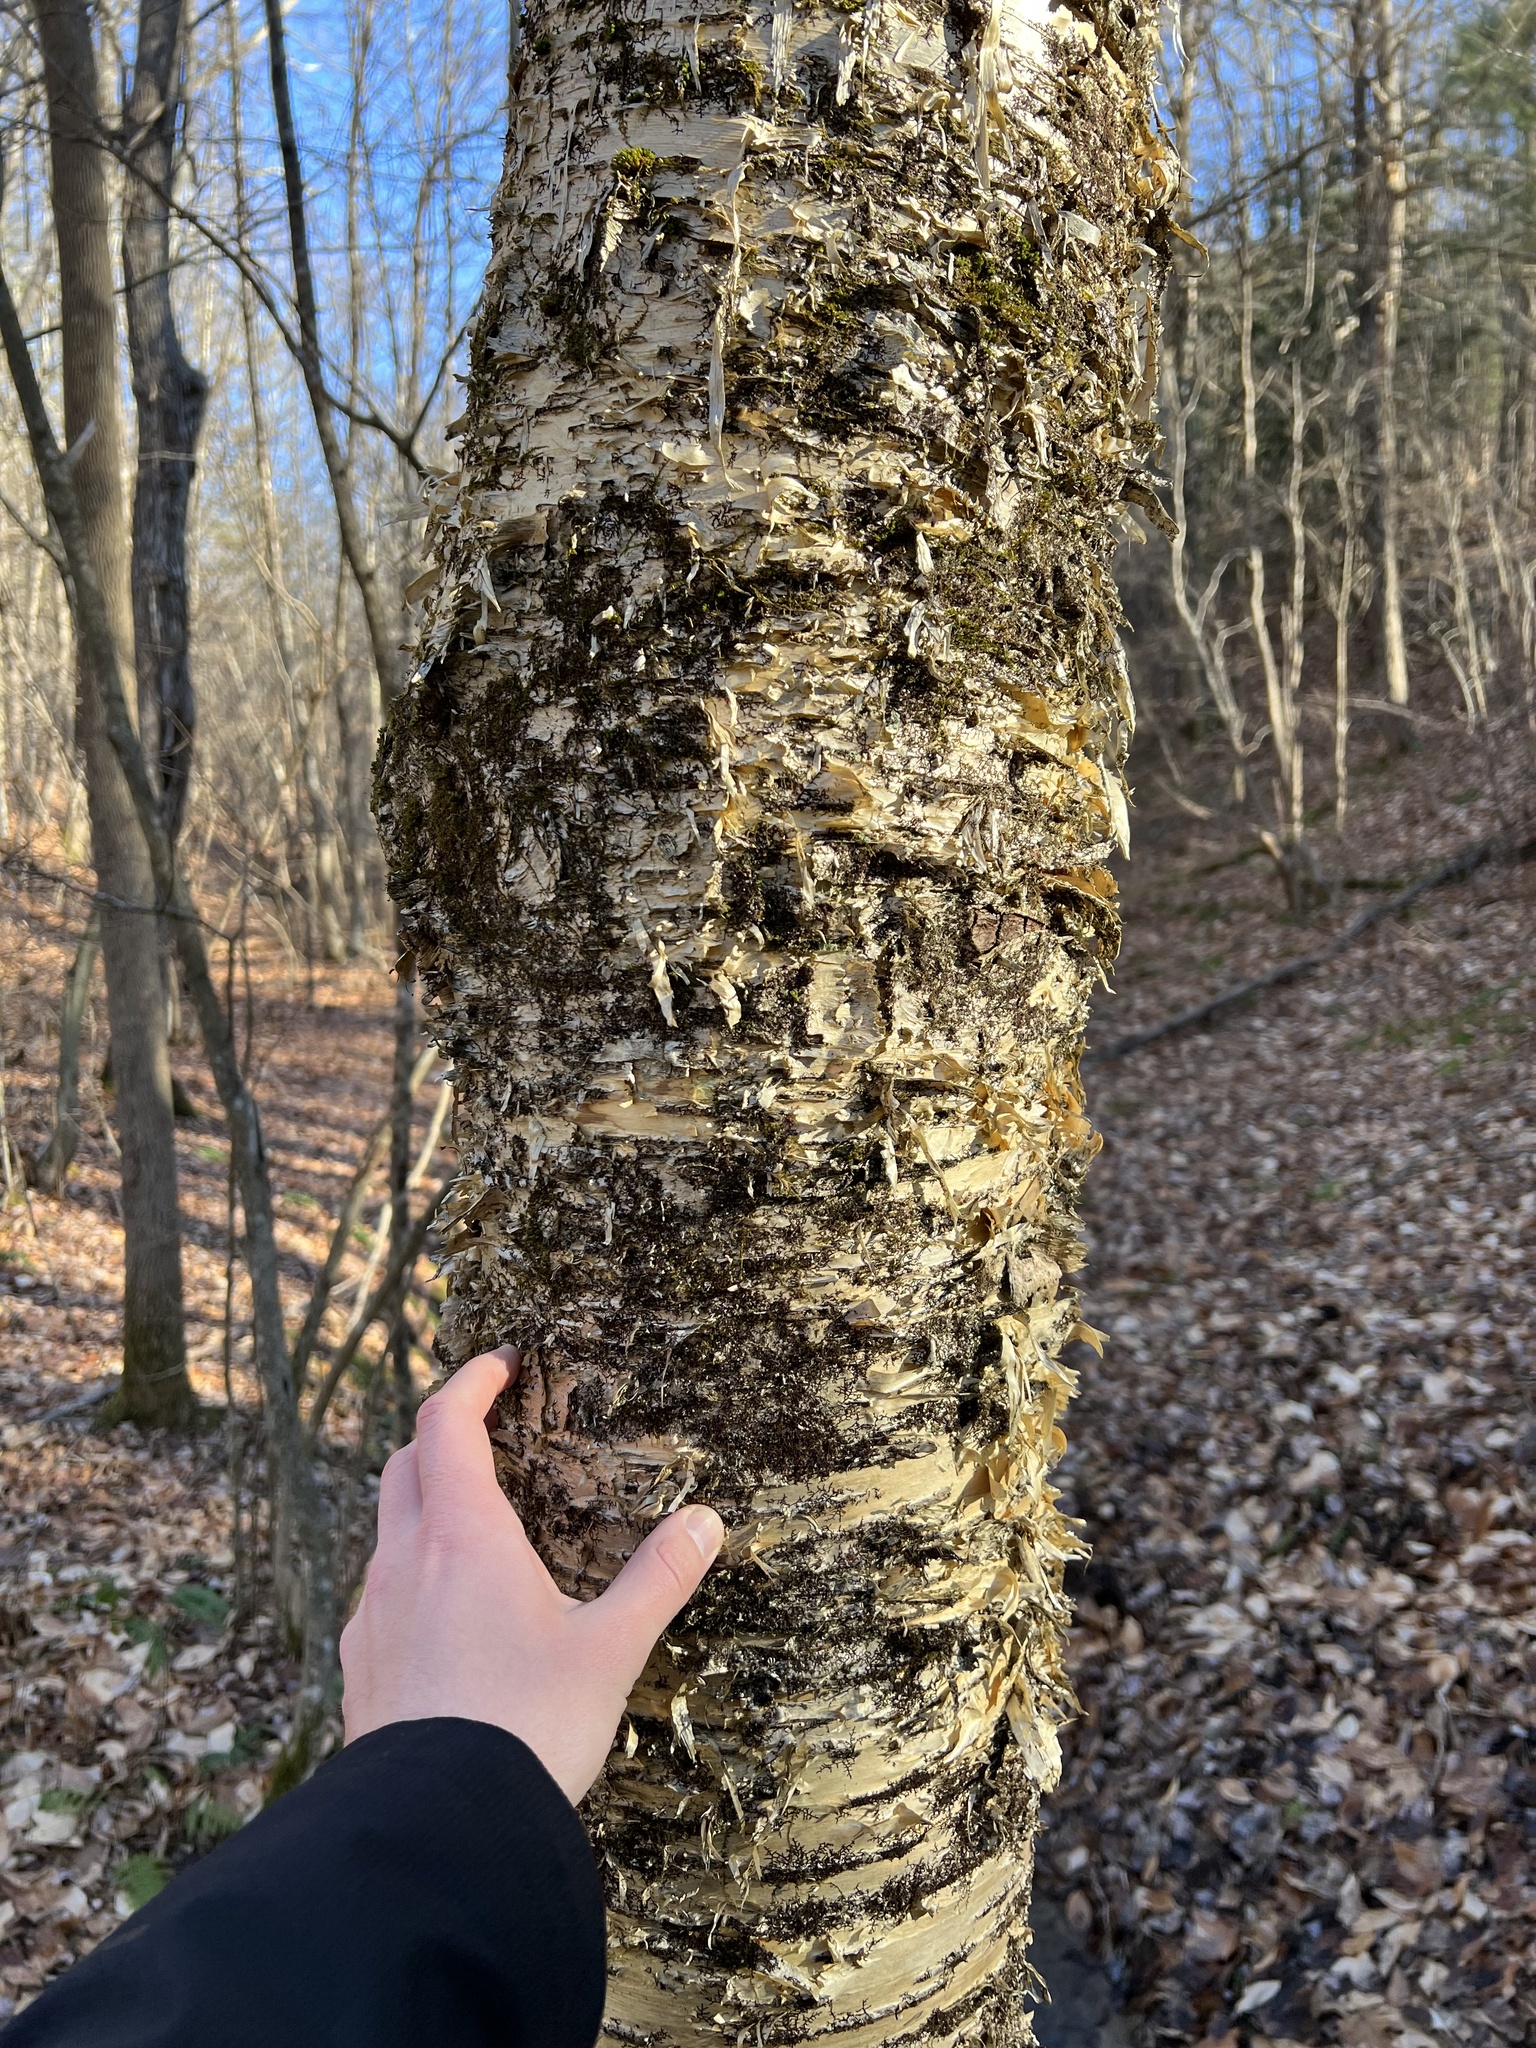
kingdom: Plantae
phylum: Tracheophyta
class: Magnoliopsida
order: Fagales
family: Betulaceae
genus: Betula
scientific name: Betula alleghaniensis
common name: Yellow birch
